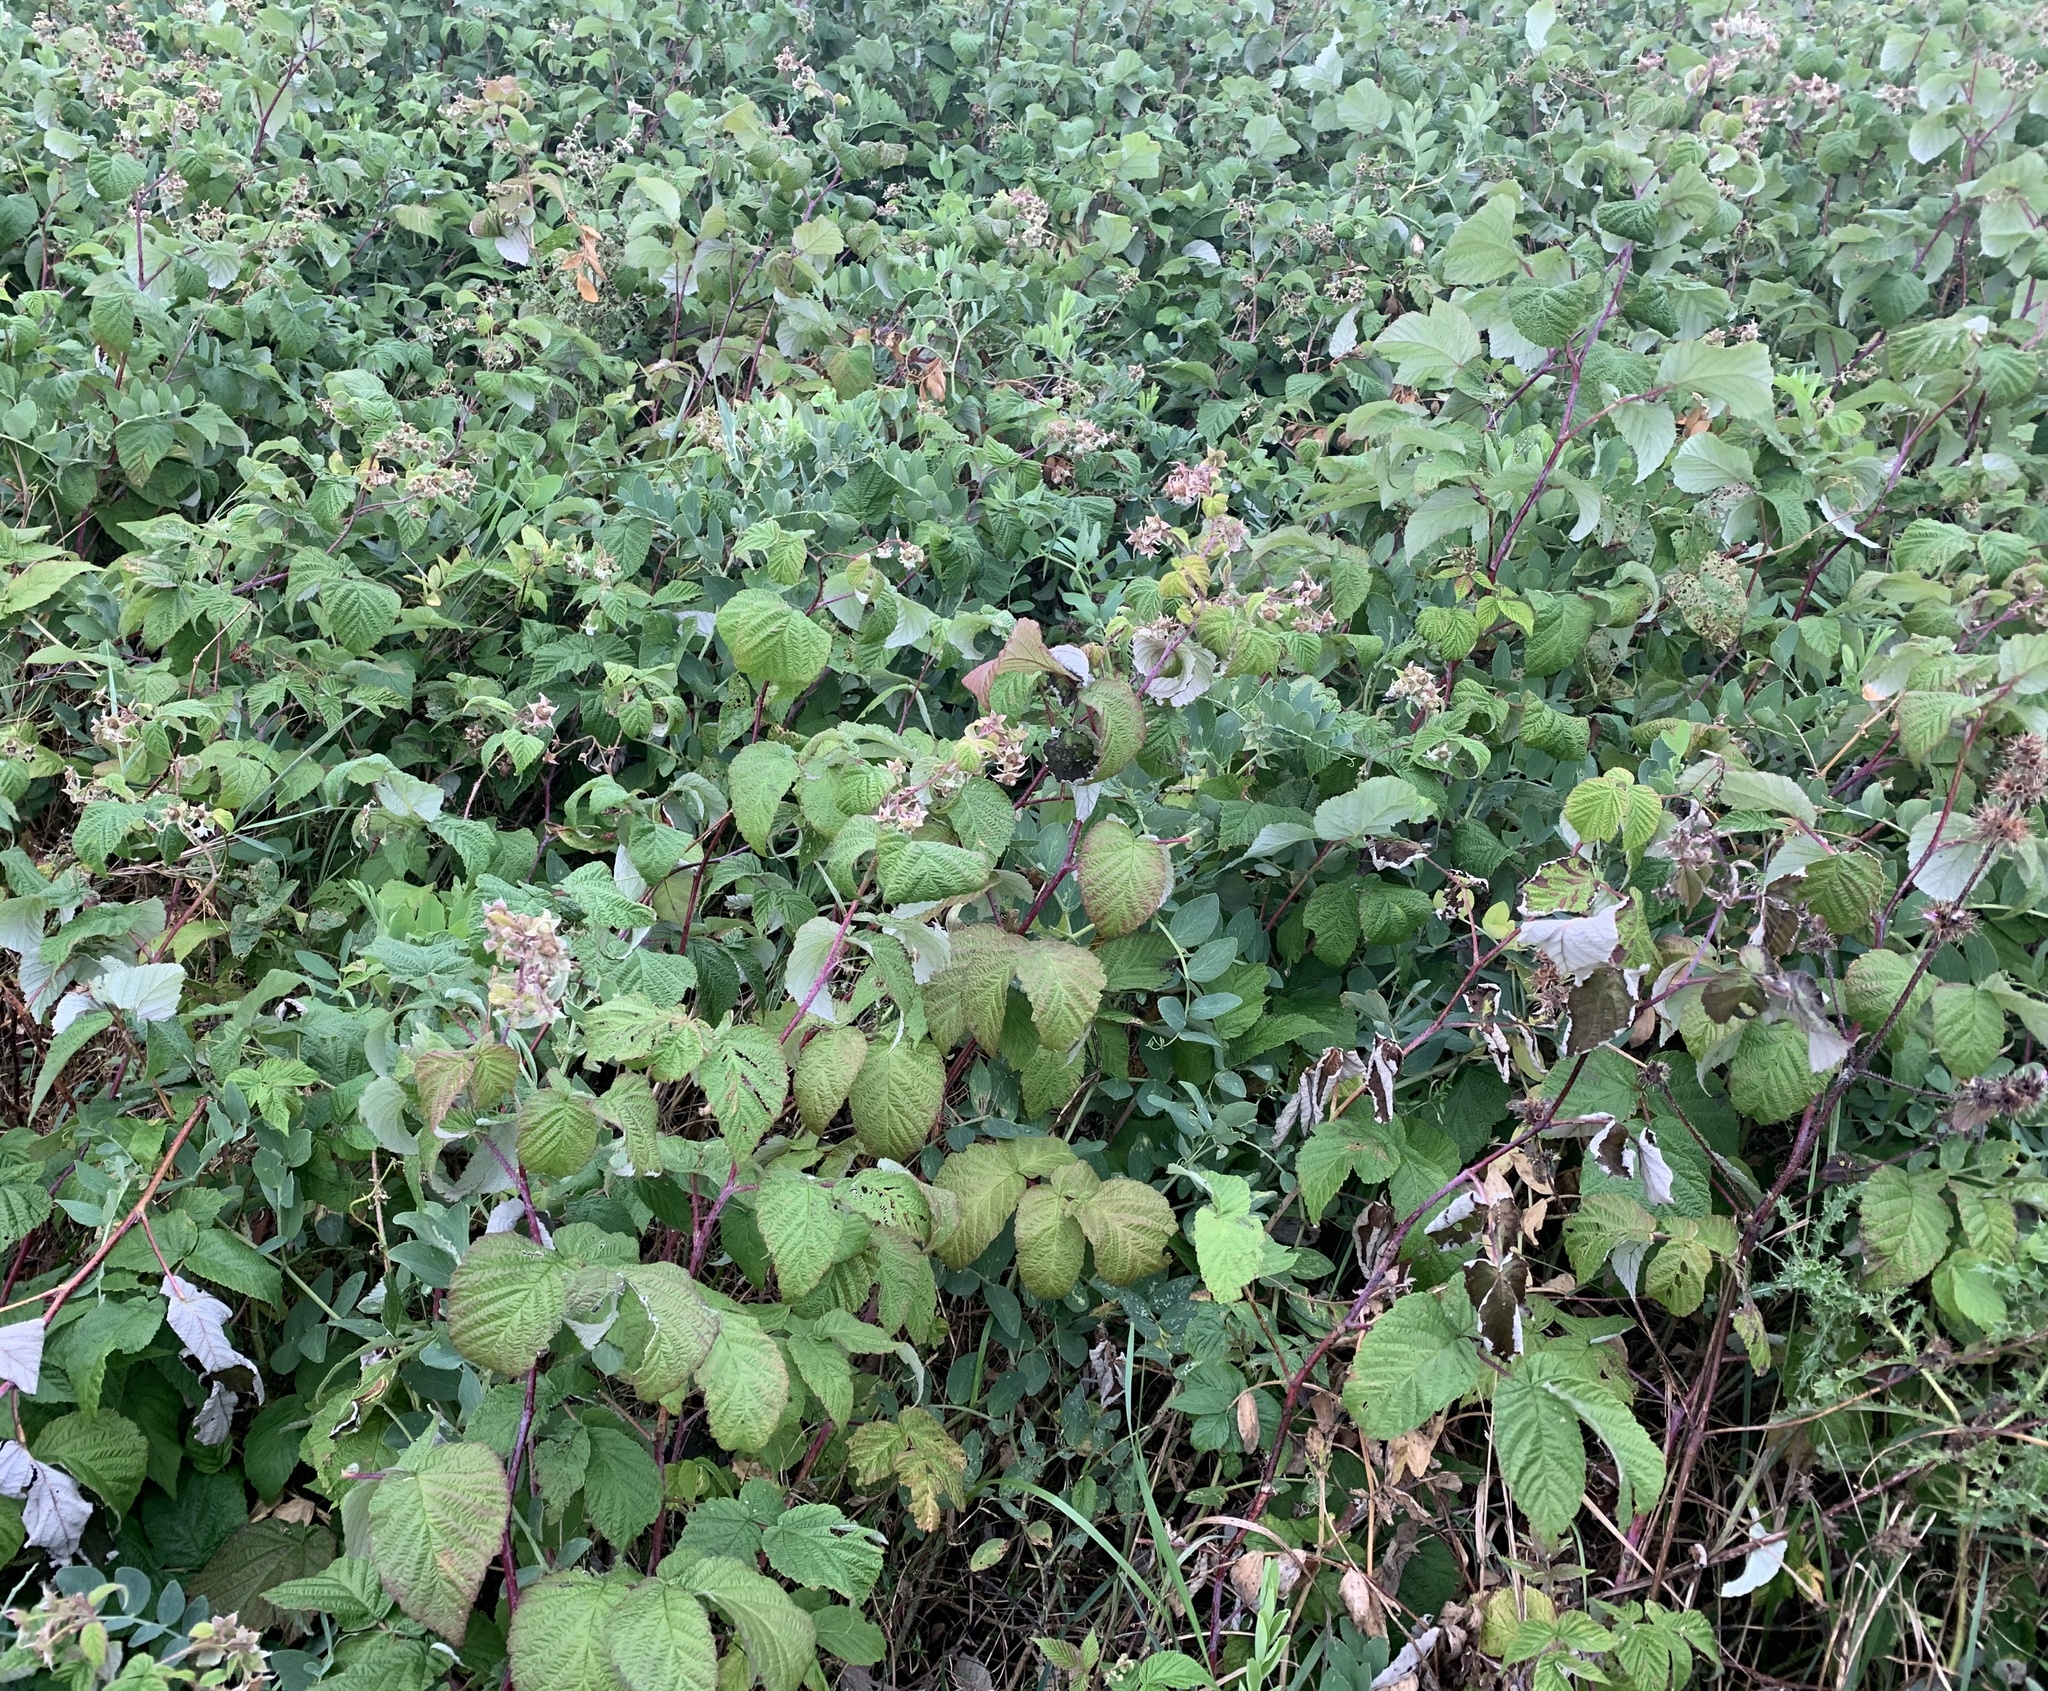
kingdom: Plantae
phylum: Tracheophyta
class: Magnoliopsida
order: Rosales
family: Rosaceae
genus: Rubus
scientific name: Rubus idaeus
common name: Raspberry
